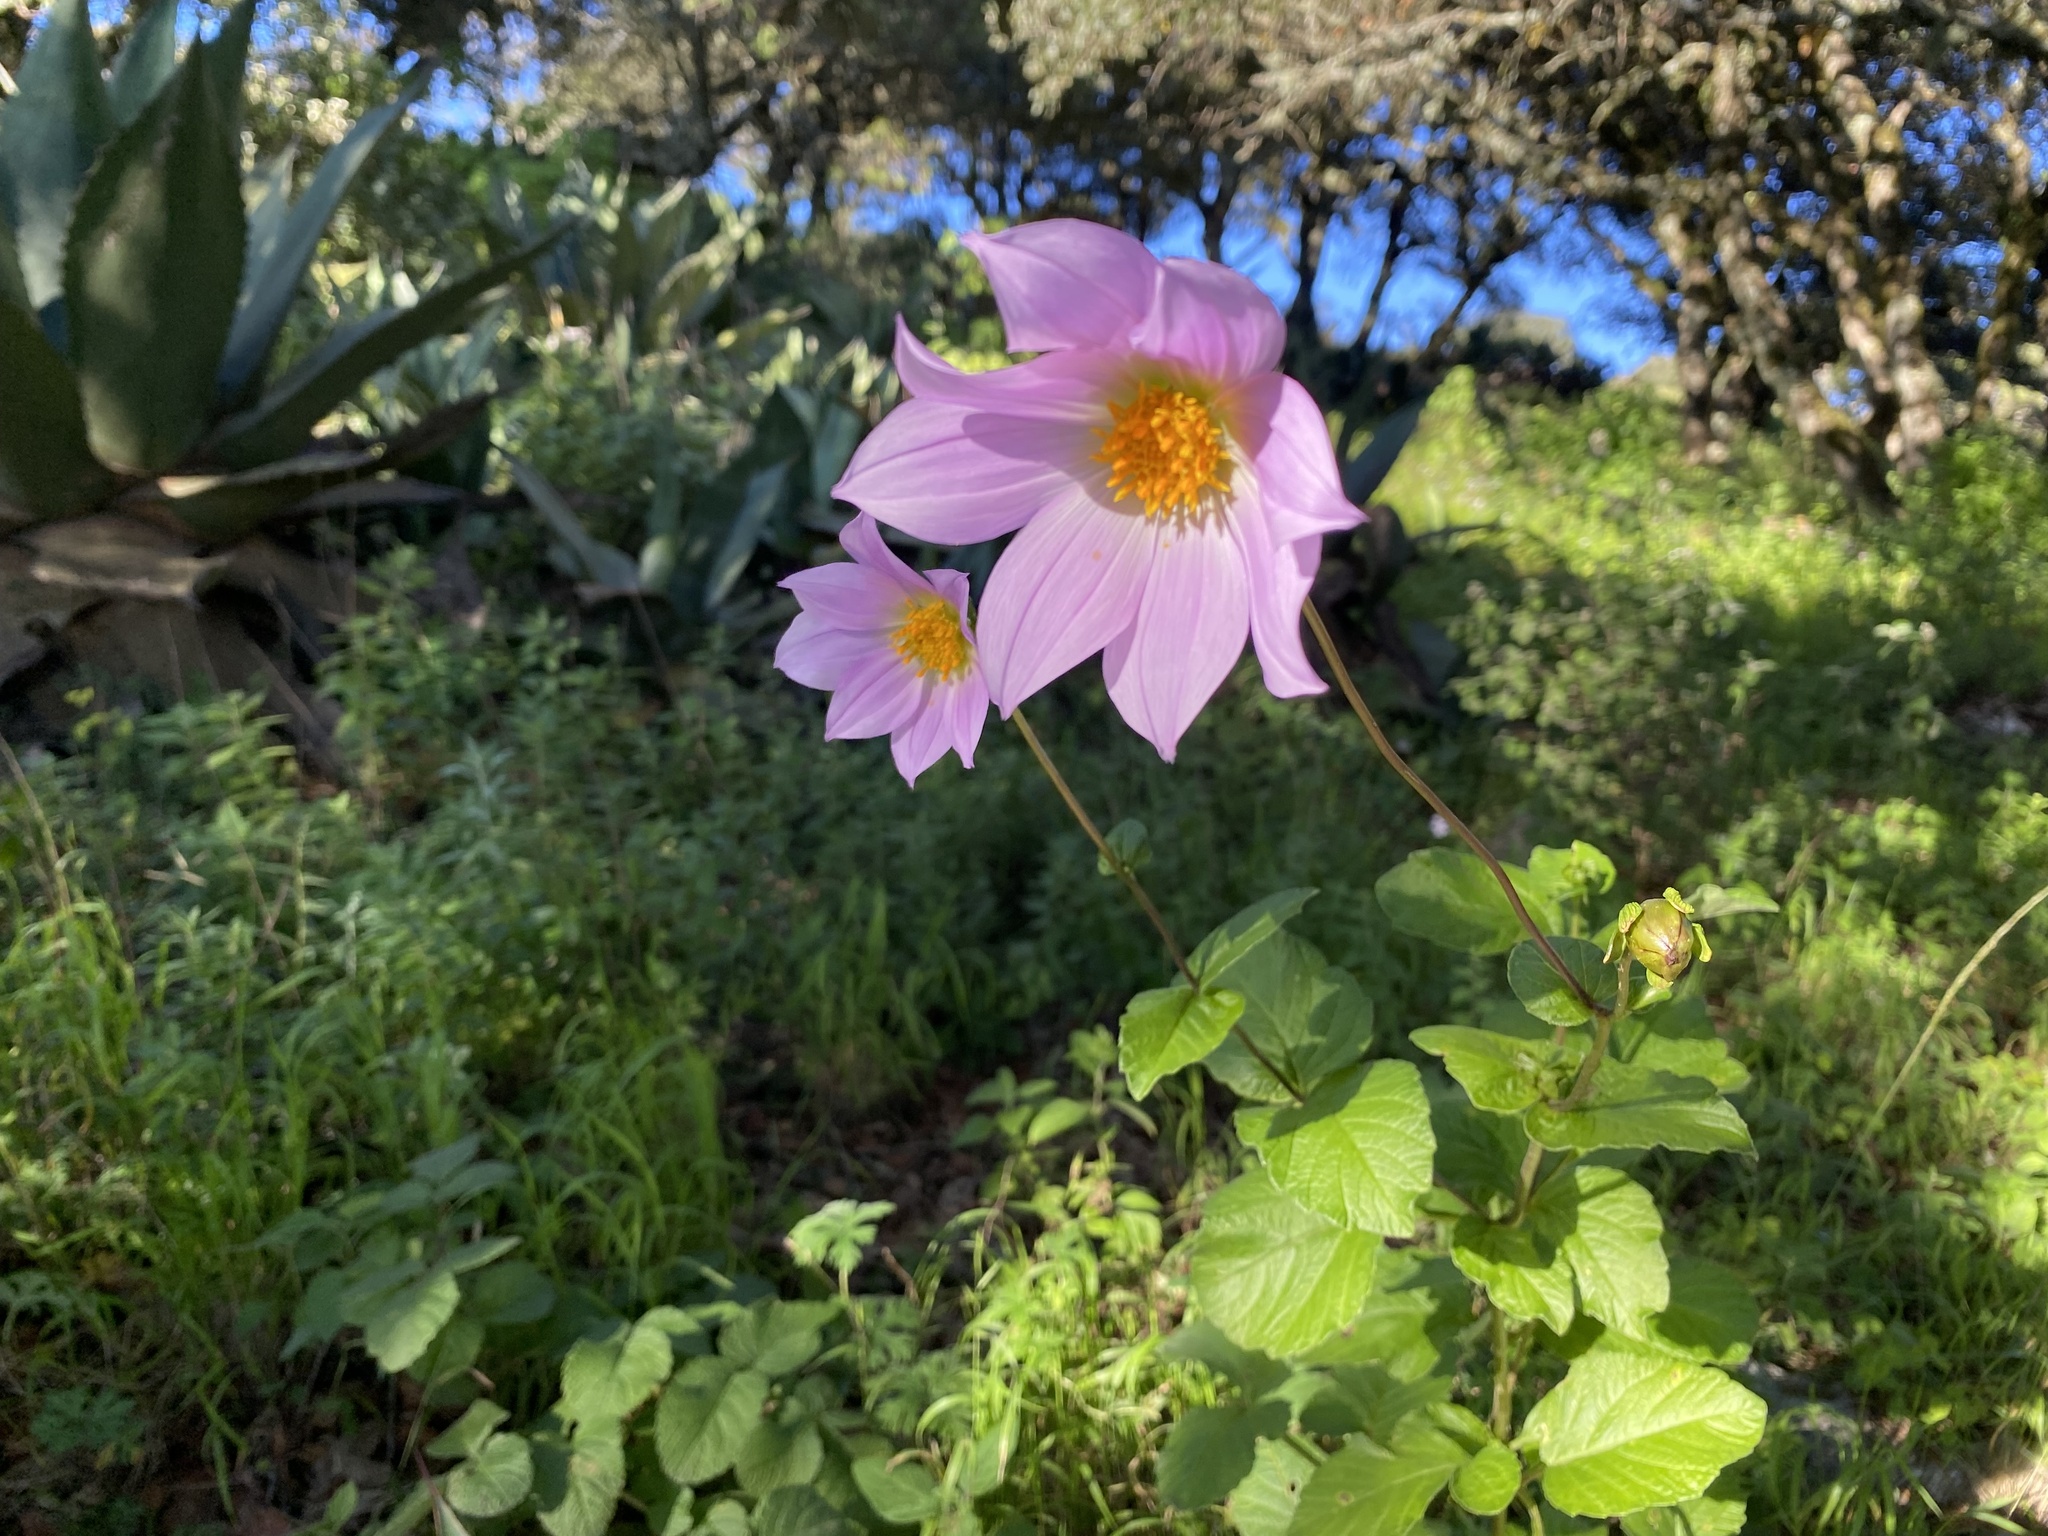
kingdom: Plantae
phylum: Tracheophyta
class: Magnoliopsida
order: Asterales
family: Asteraceae
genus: Dahlia
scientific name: Dahlia neglecta
